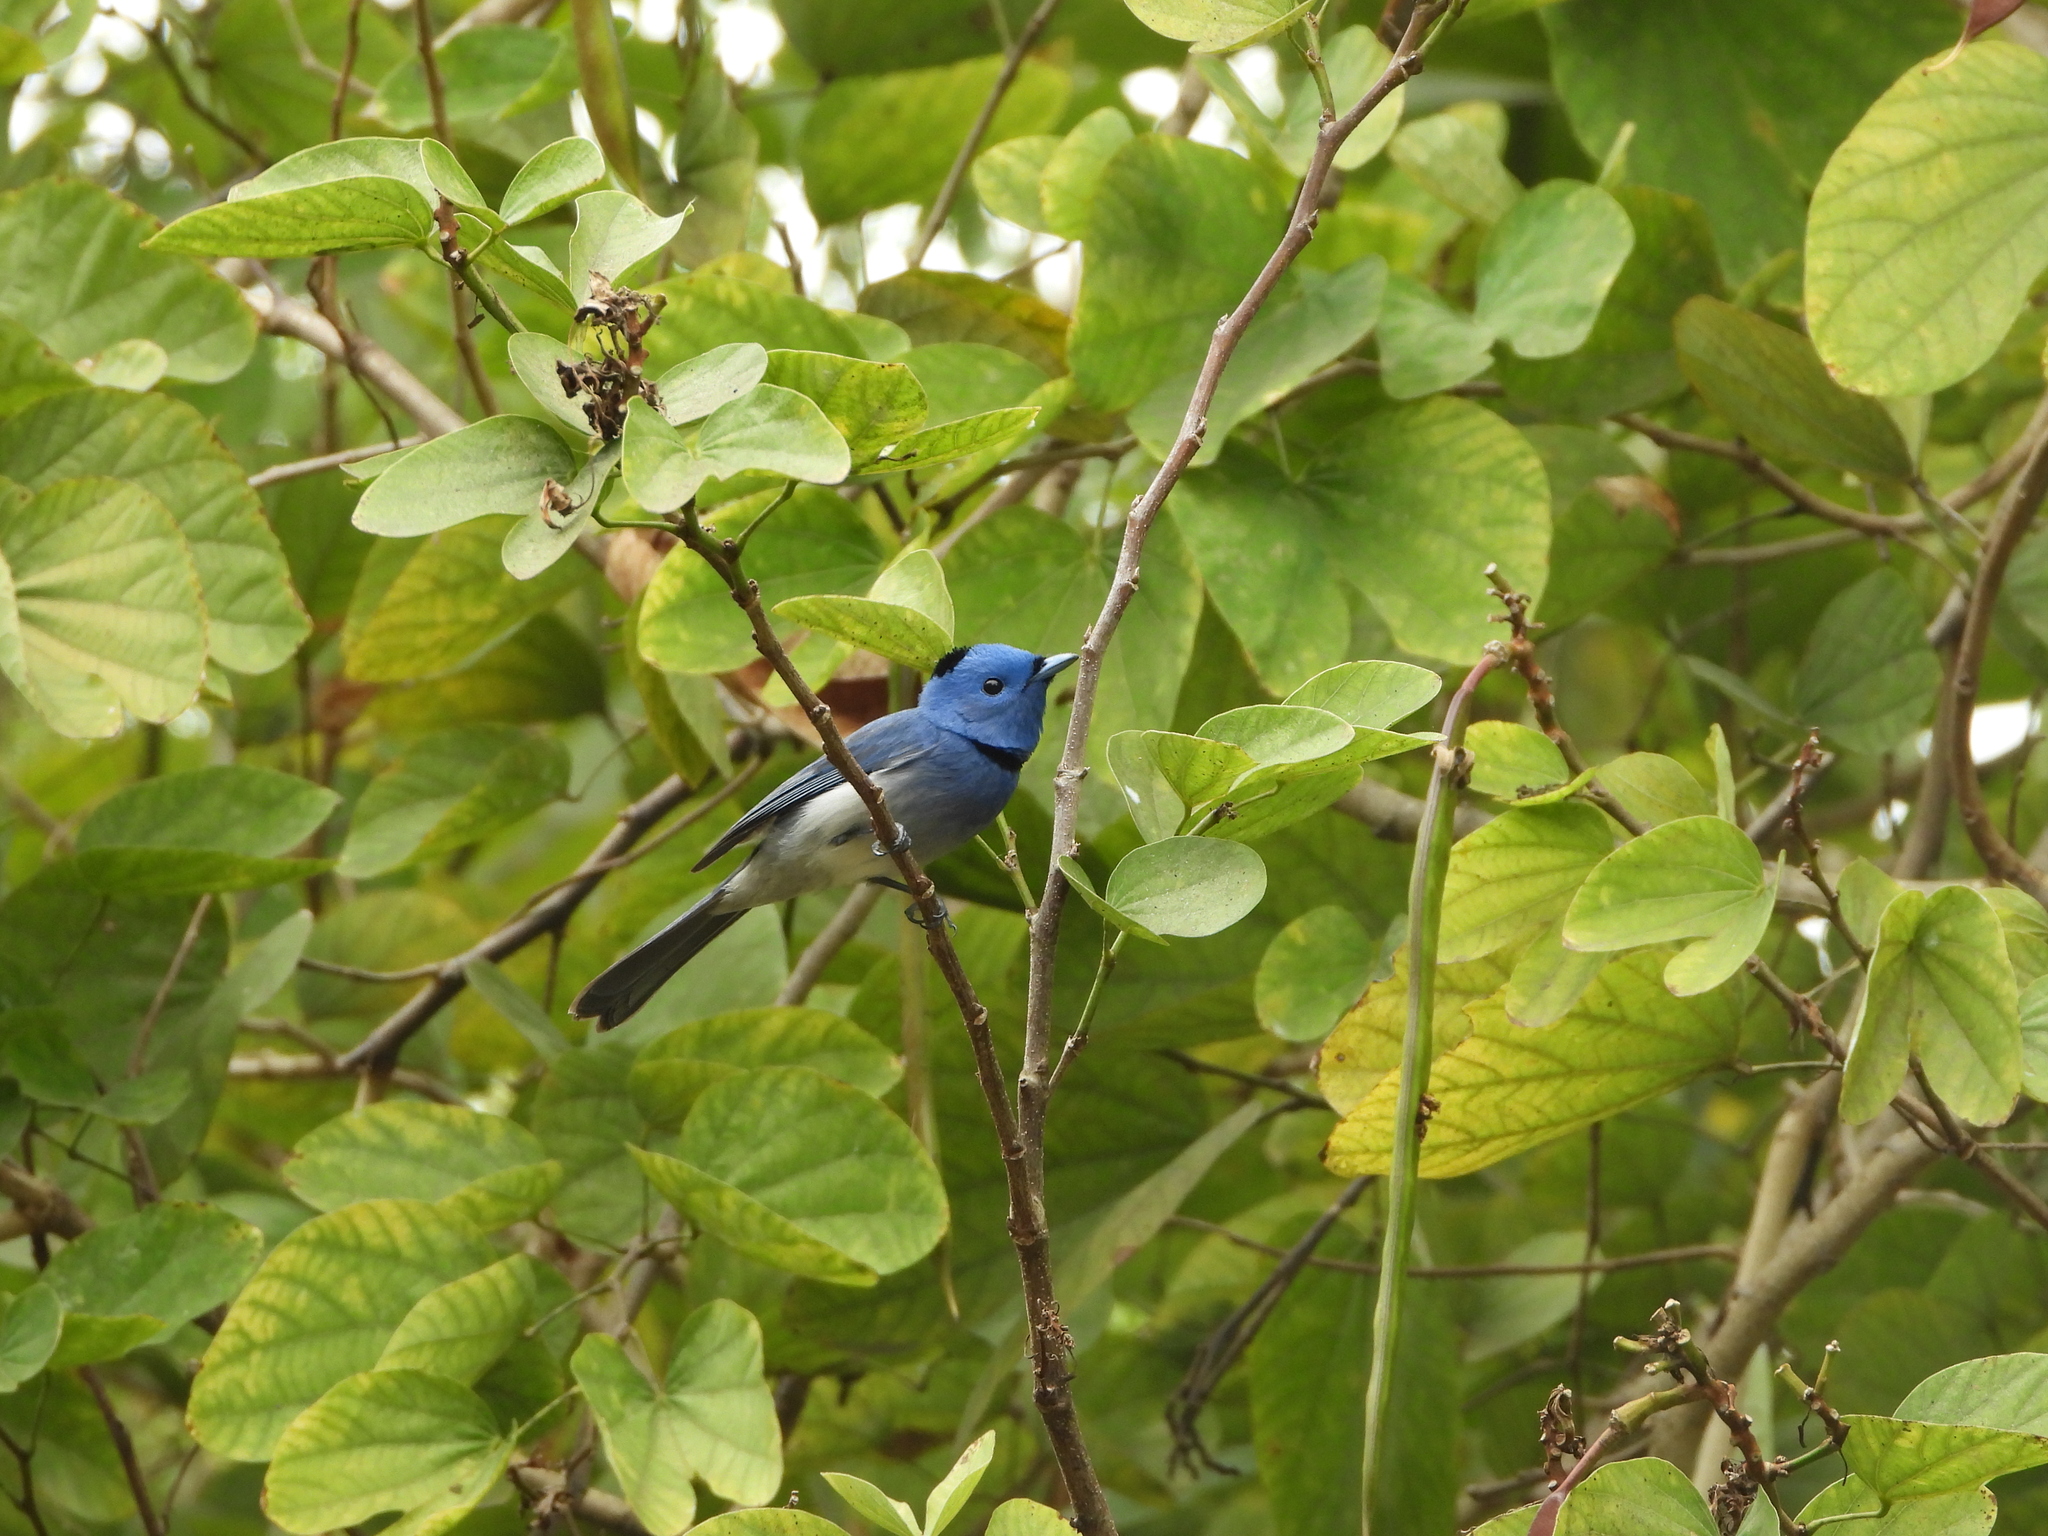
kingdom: Animalia
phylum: Chordata
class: Aves
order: Passeriformes
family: Monarchidae
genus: Hypothymis
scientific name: Hypothymis azurea
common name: Black-naped monarch
